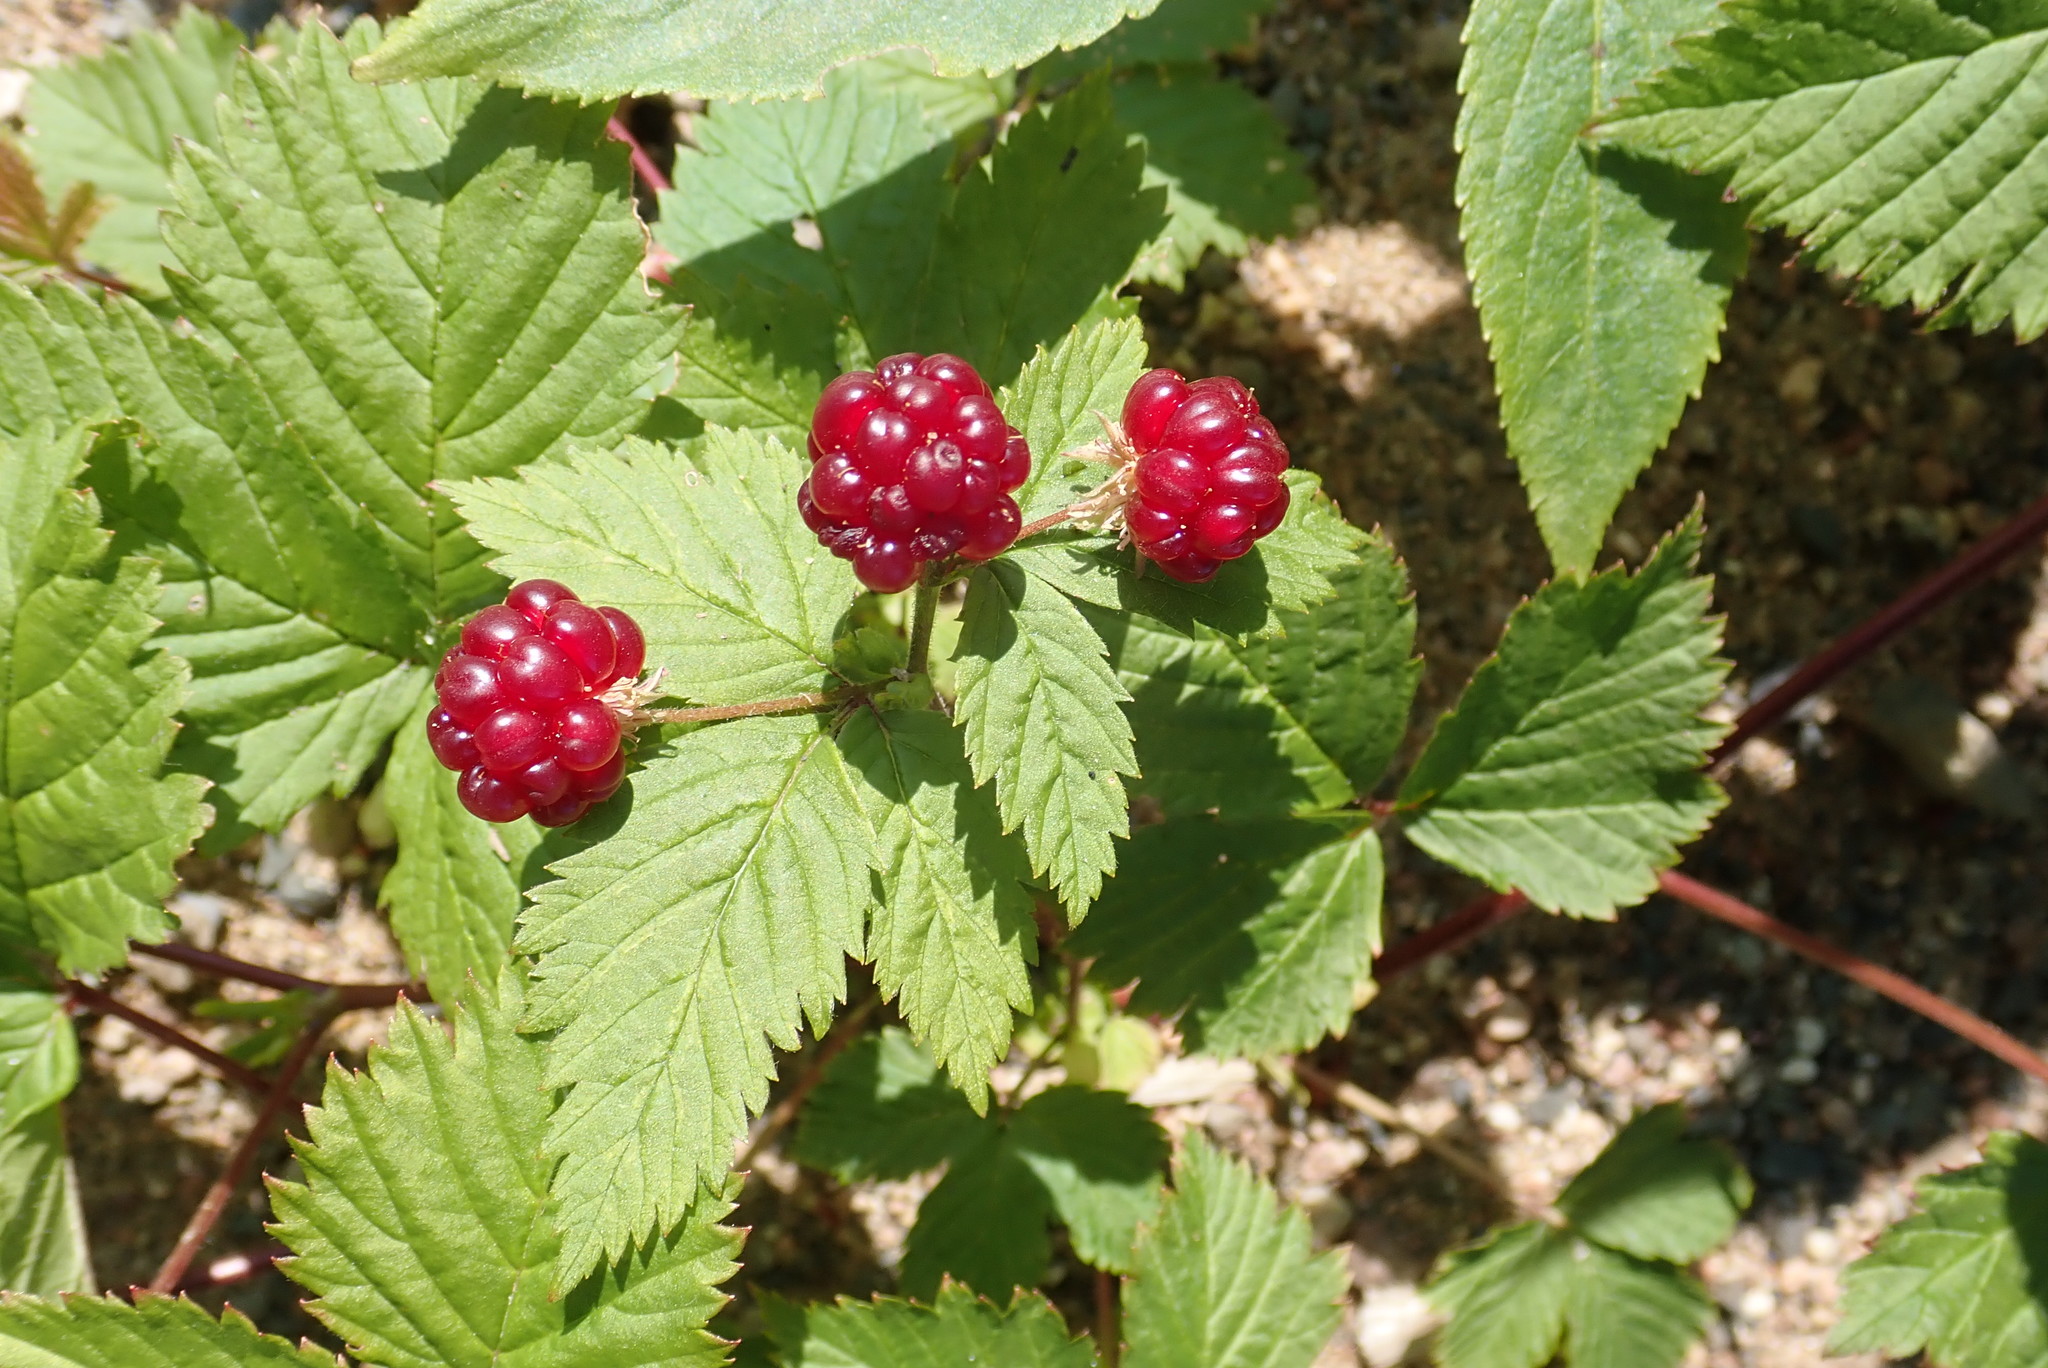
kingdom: Plantae
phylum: Tracheophyta
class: Magnoliopsida
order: Rosales
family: Rosaceae
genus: Rubus
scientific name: Rubus pubescens
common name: Dwarf raspberry
